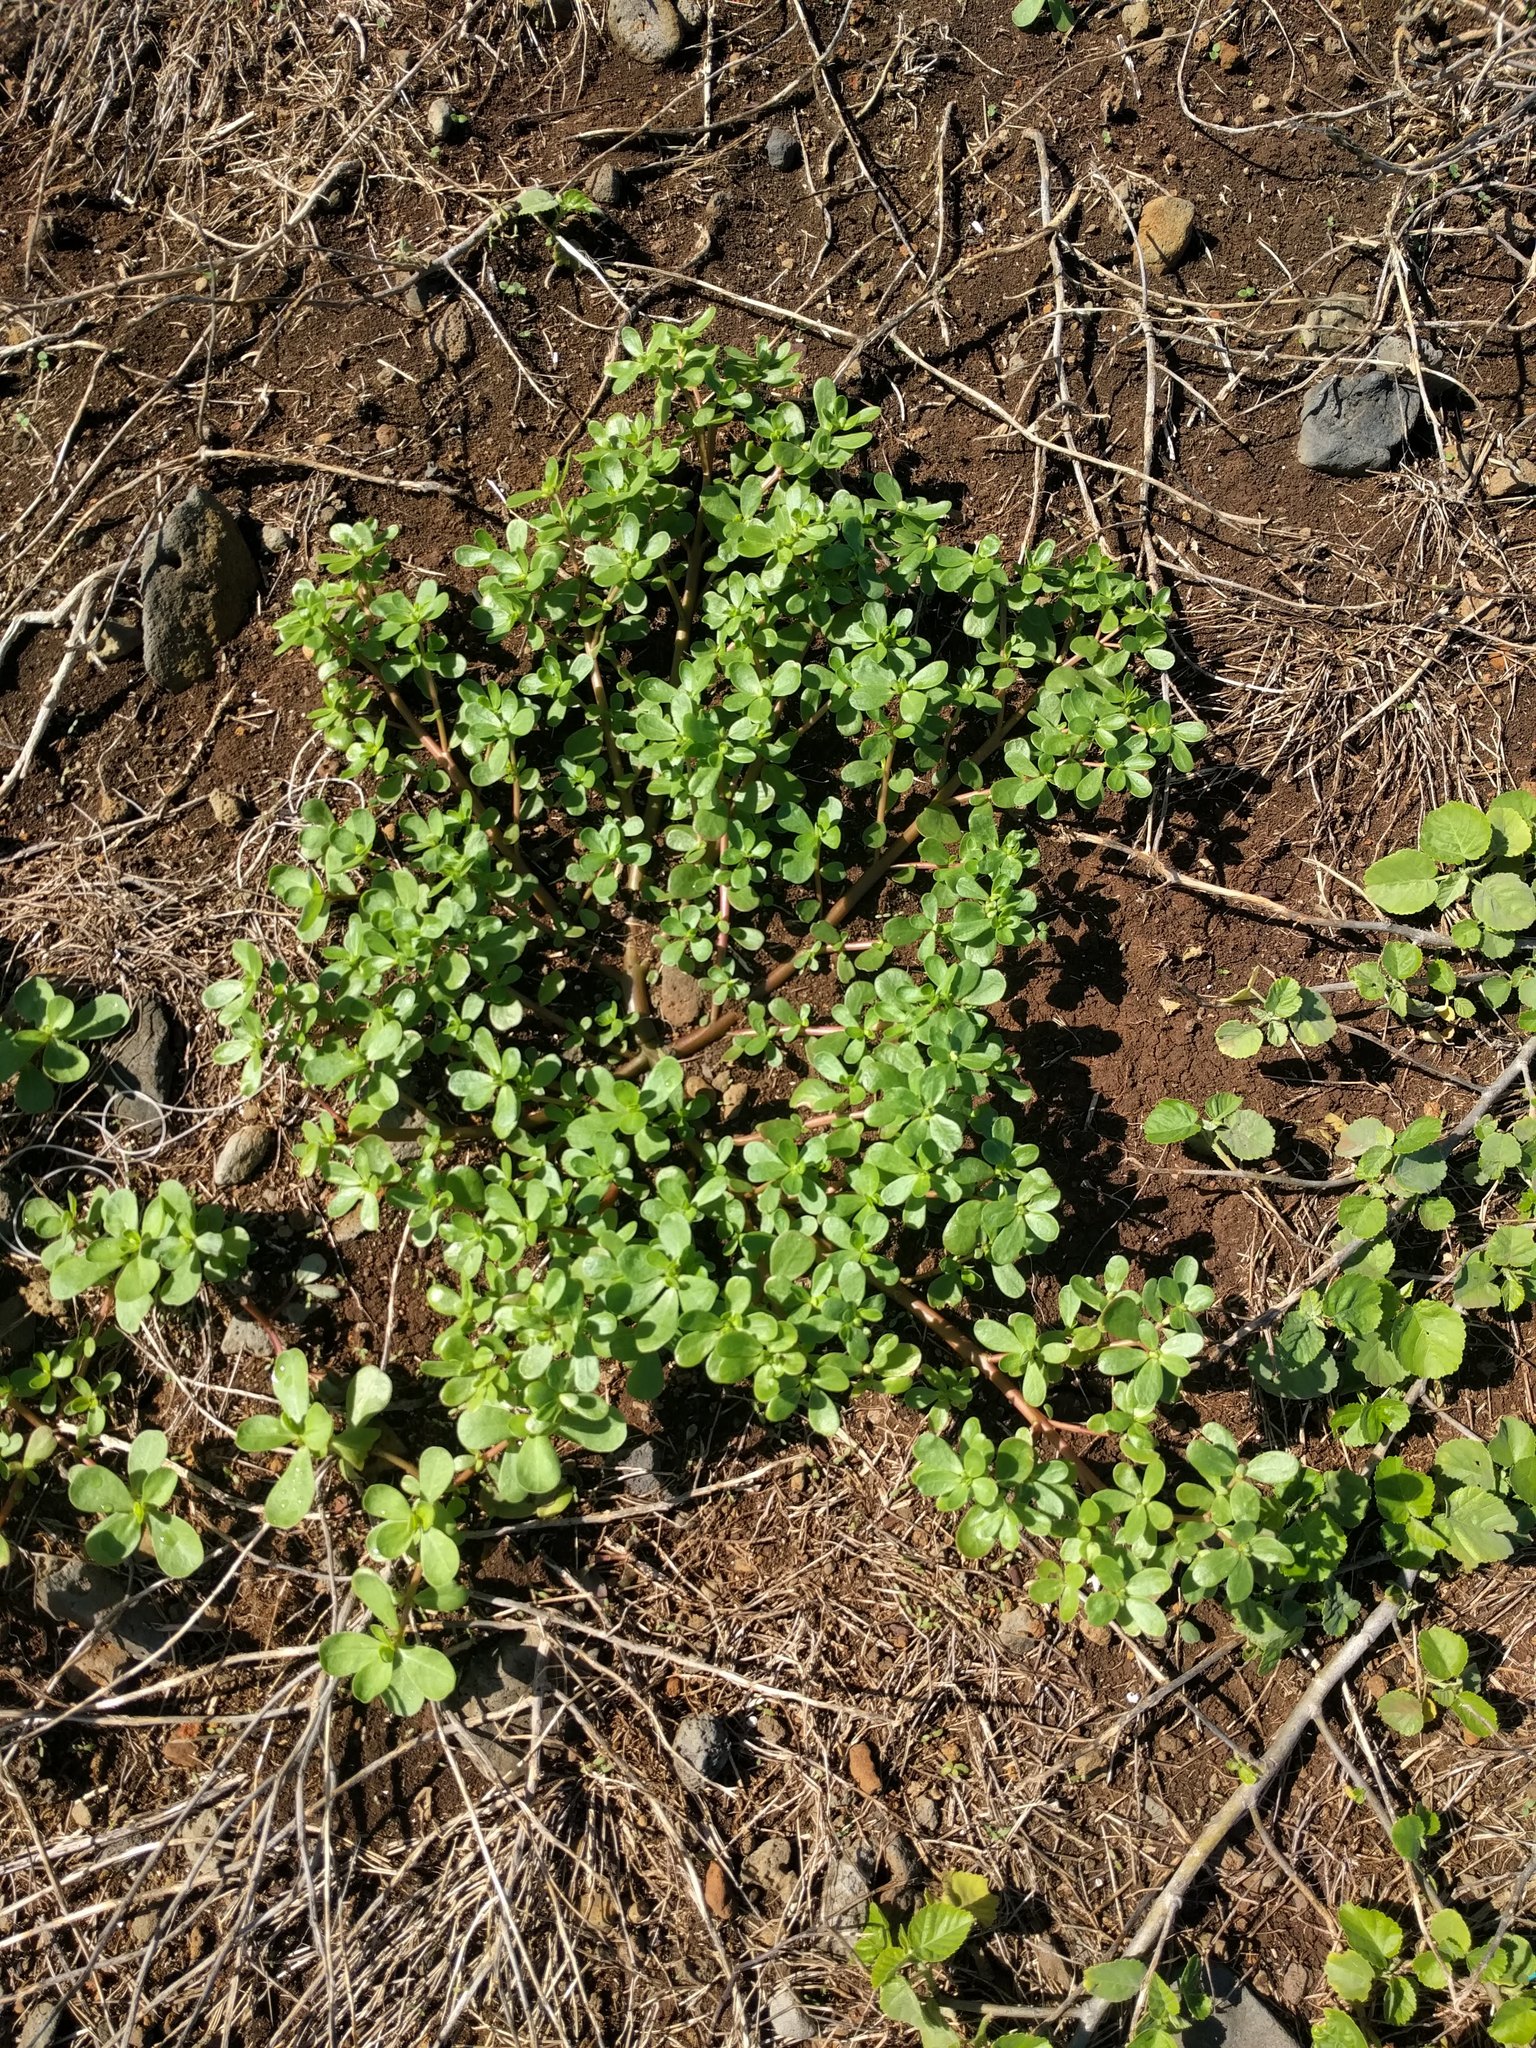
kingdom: Plantae
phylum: Tracheophyta
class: Magnoliopsida
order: Caryophyllales
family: Portulacaceae
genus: Portulaca
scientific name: Portulaca oleracea
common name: Common purslane
